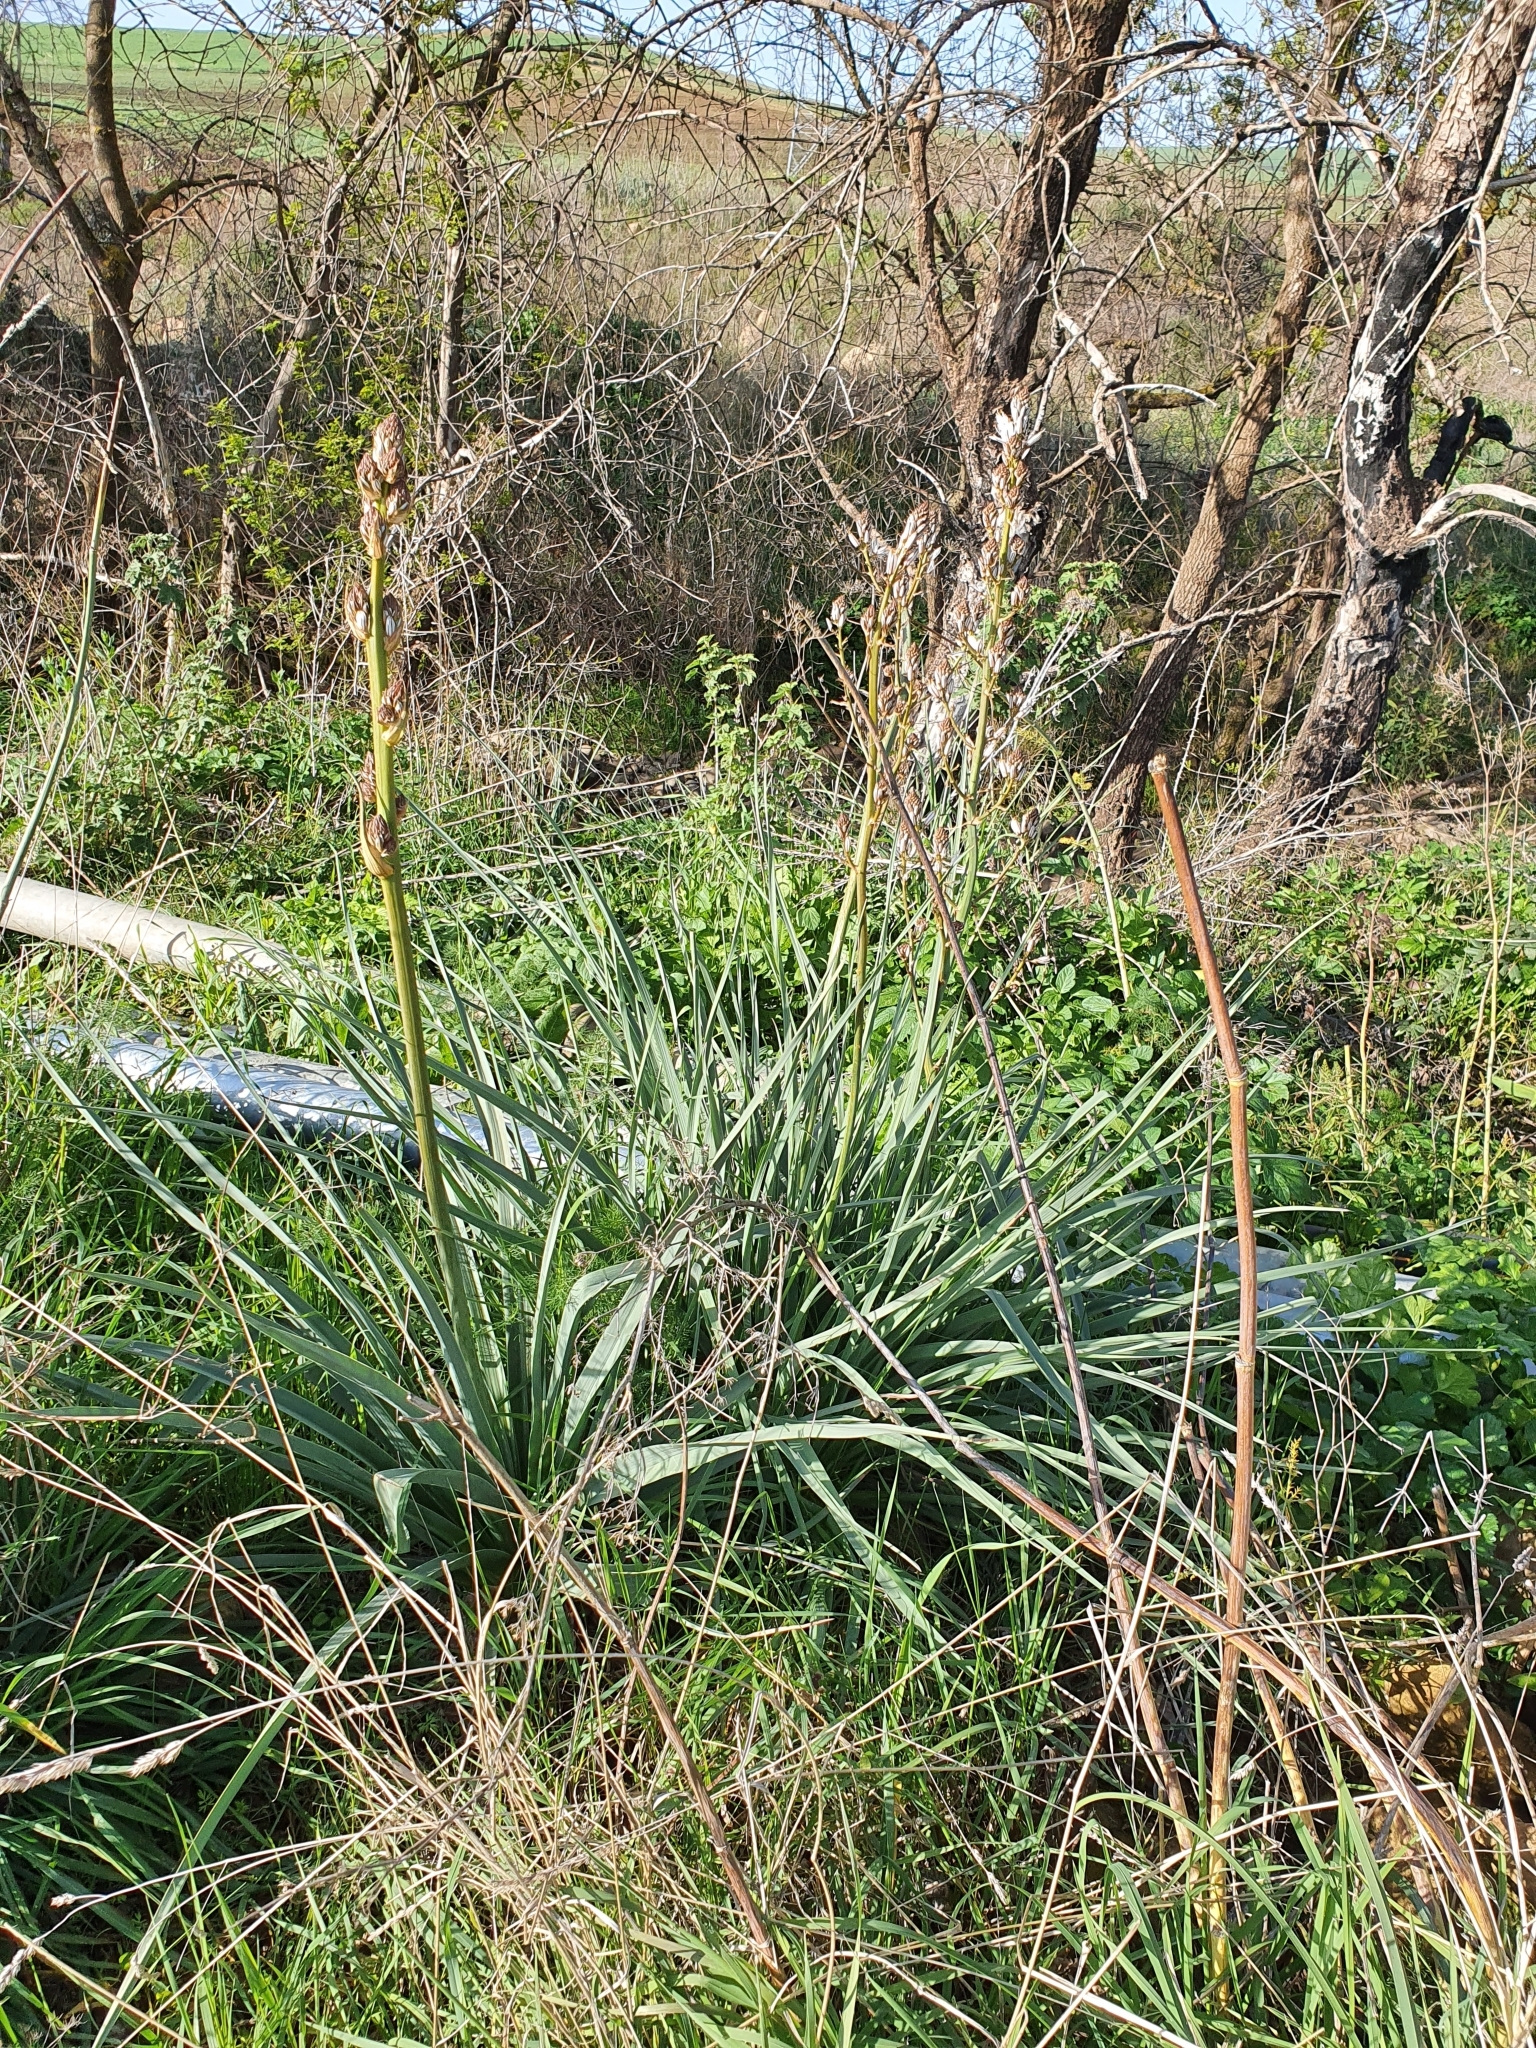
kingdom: Plantae
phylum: Tracheophyta
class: Liliopsida
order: Asparagales
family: Asphodelaceae
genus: Asphodelus
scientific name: Asphodelus ramosus
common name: Silverrod
